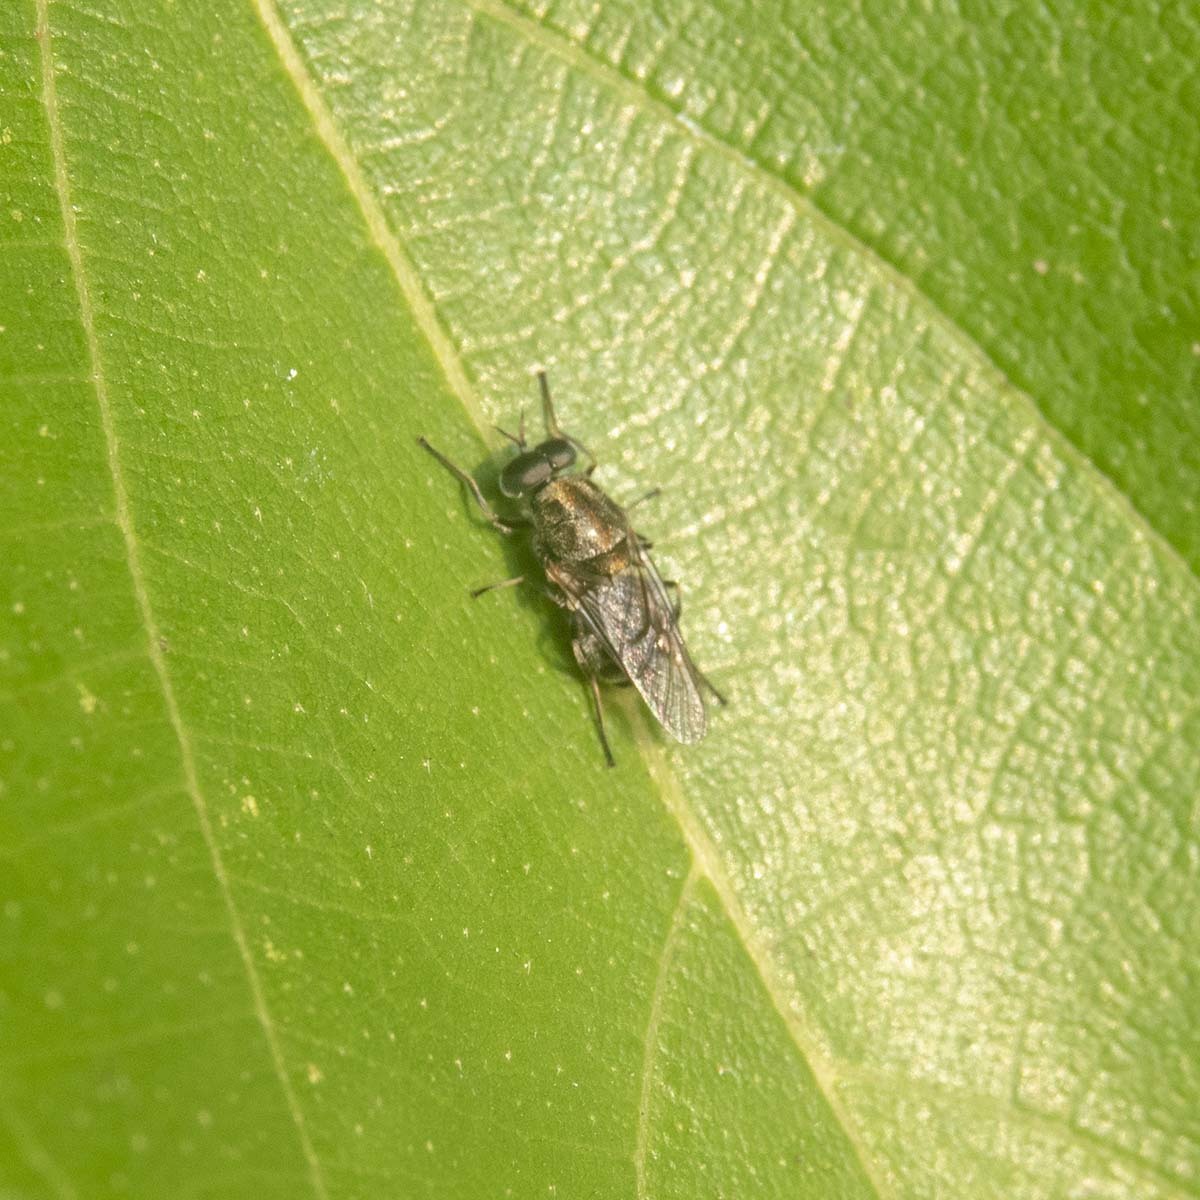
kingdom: Animalia
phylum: Arthropoda
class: Insecta
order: Diptera
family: Stratiomyidae
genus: Adoxomyia
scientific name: Adoxomyia heminopla
